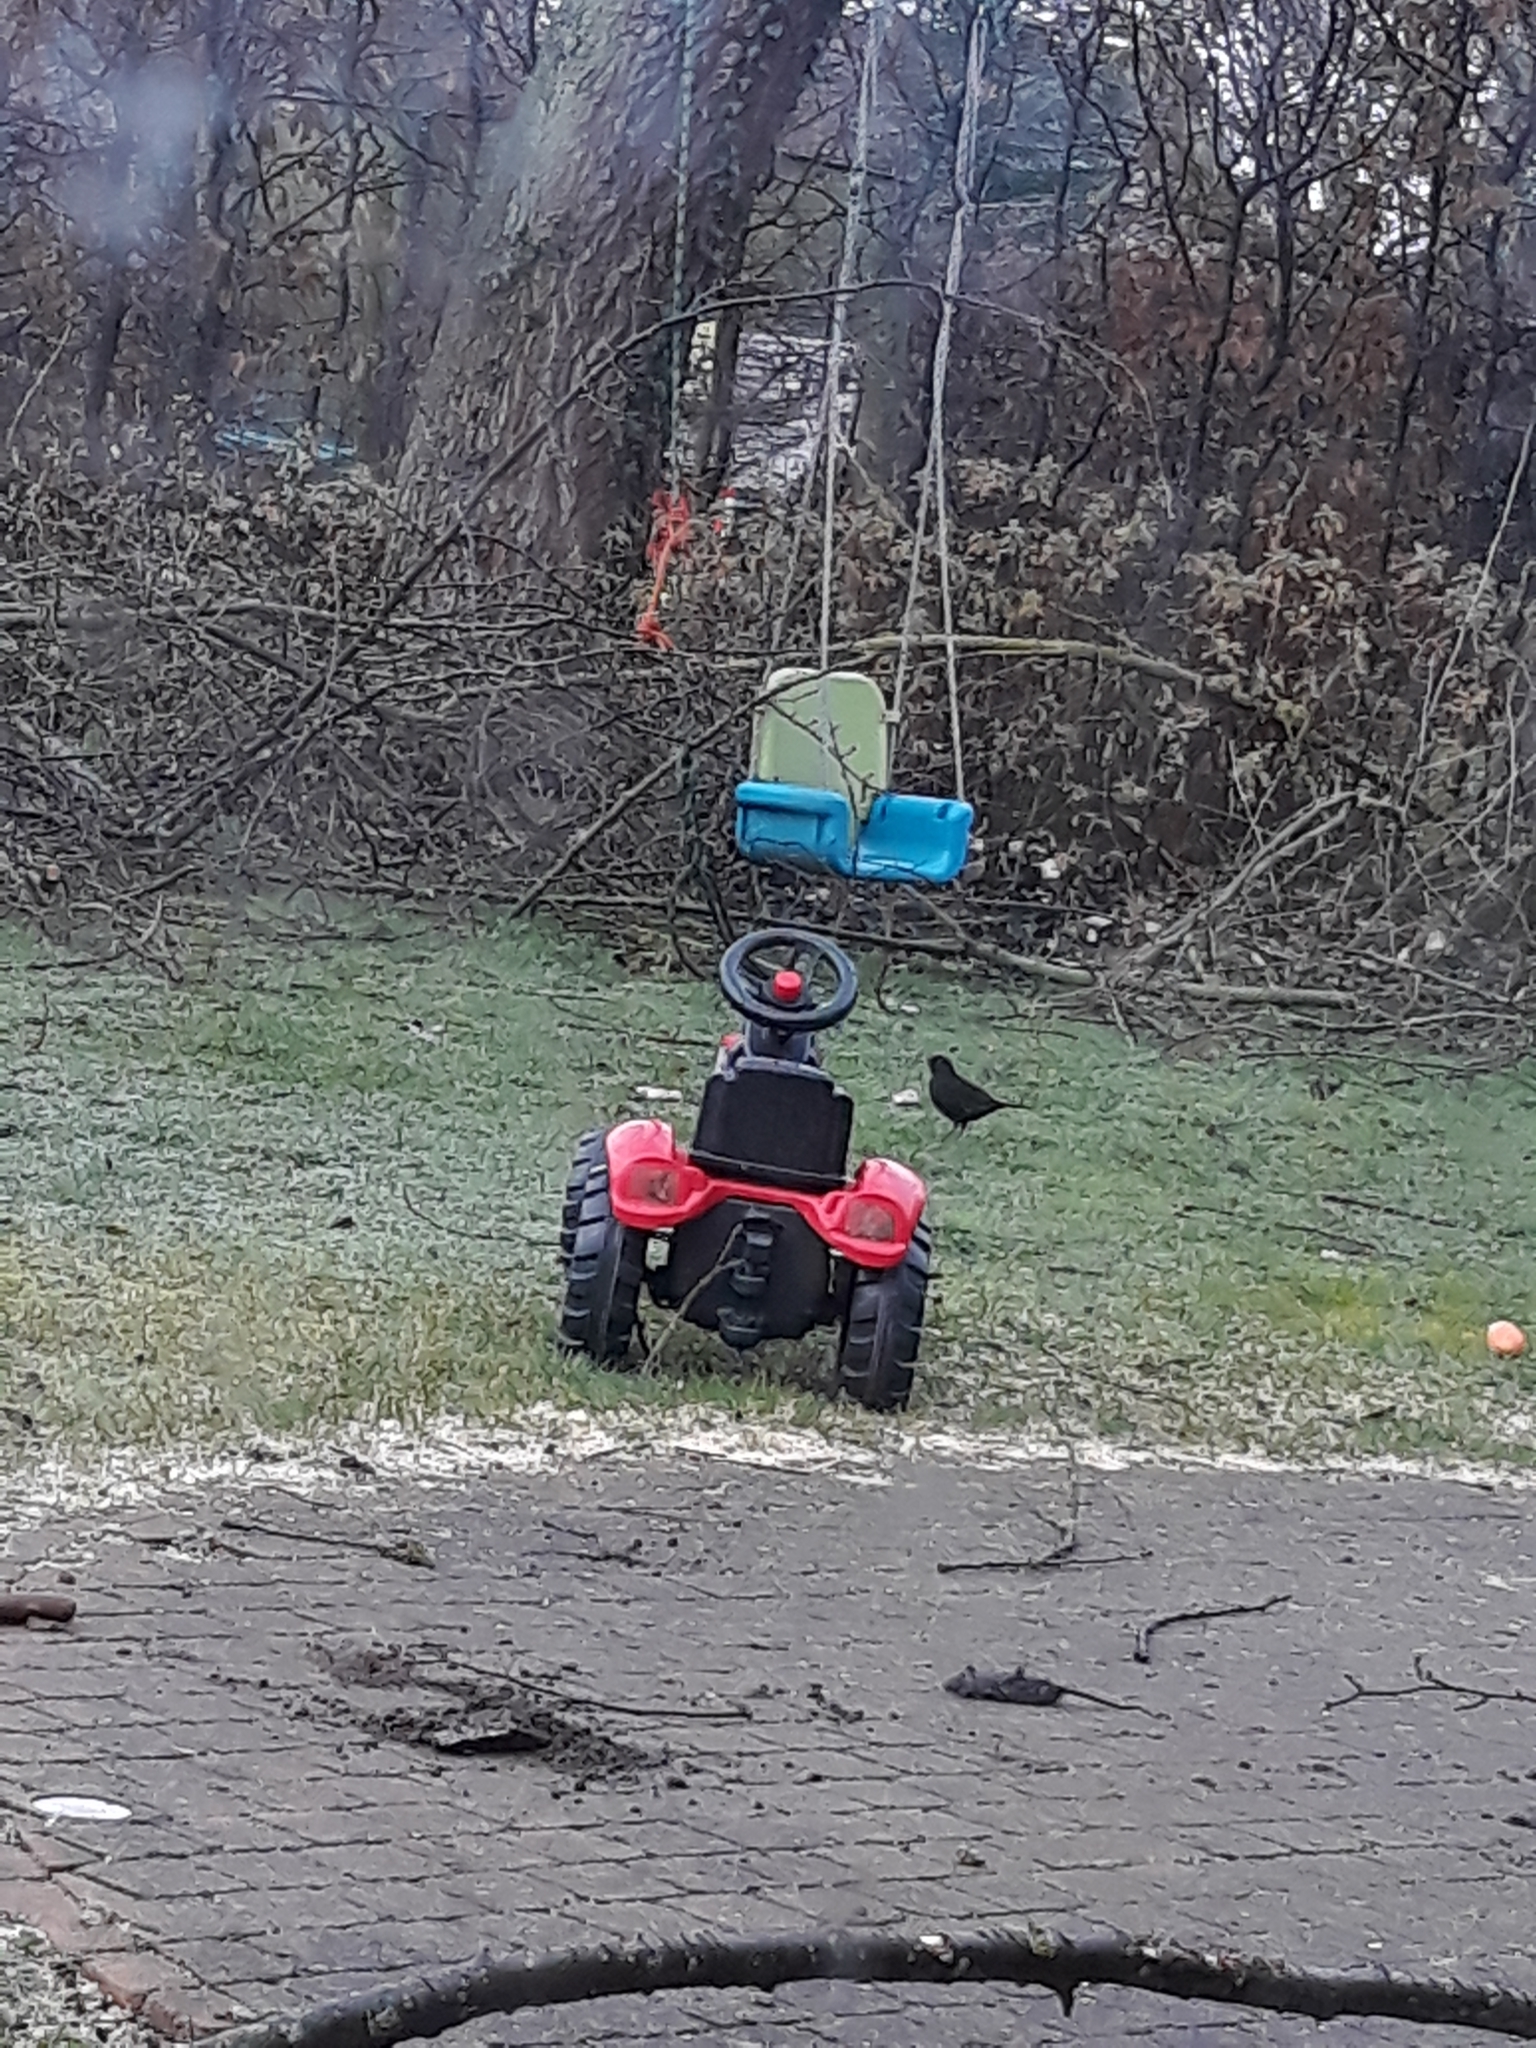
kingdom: Animalia
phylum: Chordata
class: Aves
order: Passeriformes
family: Turdidae
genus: Turdus
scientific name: Turdus merula
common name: Common blackbird
